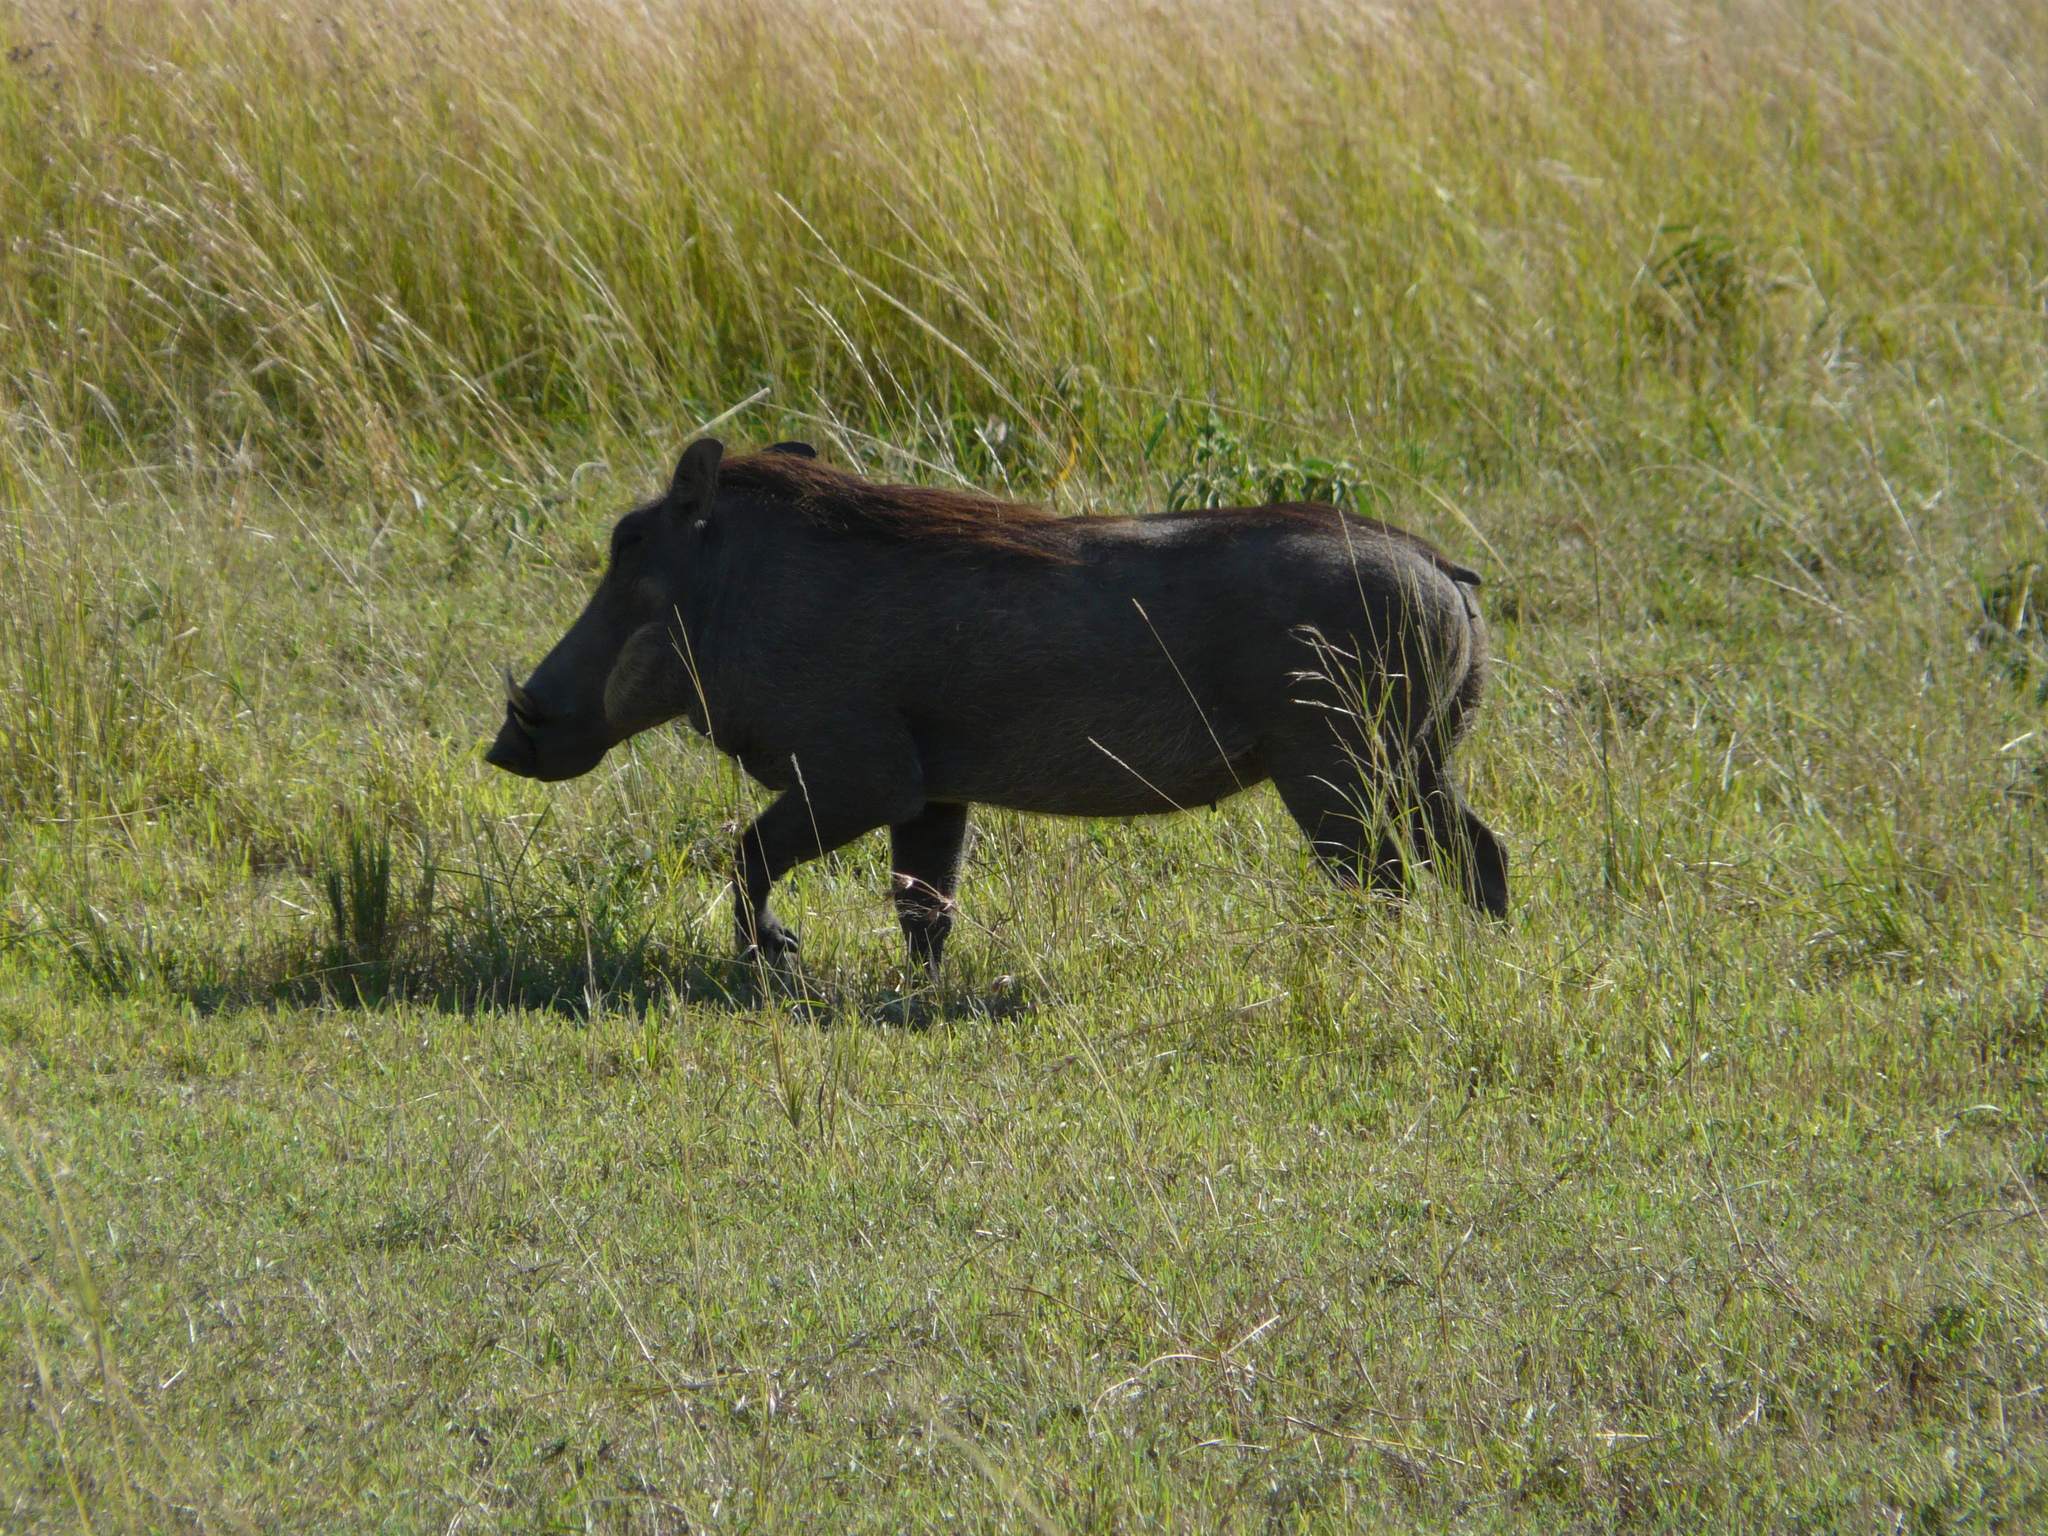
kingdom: Animalia
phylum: Chordata
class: Mammalia
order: Artiodactyla
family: Suidae
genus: Phacochoerus
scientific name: Phacochoerus africanus
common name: Common warthog
